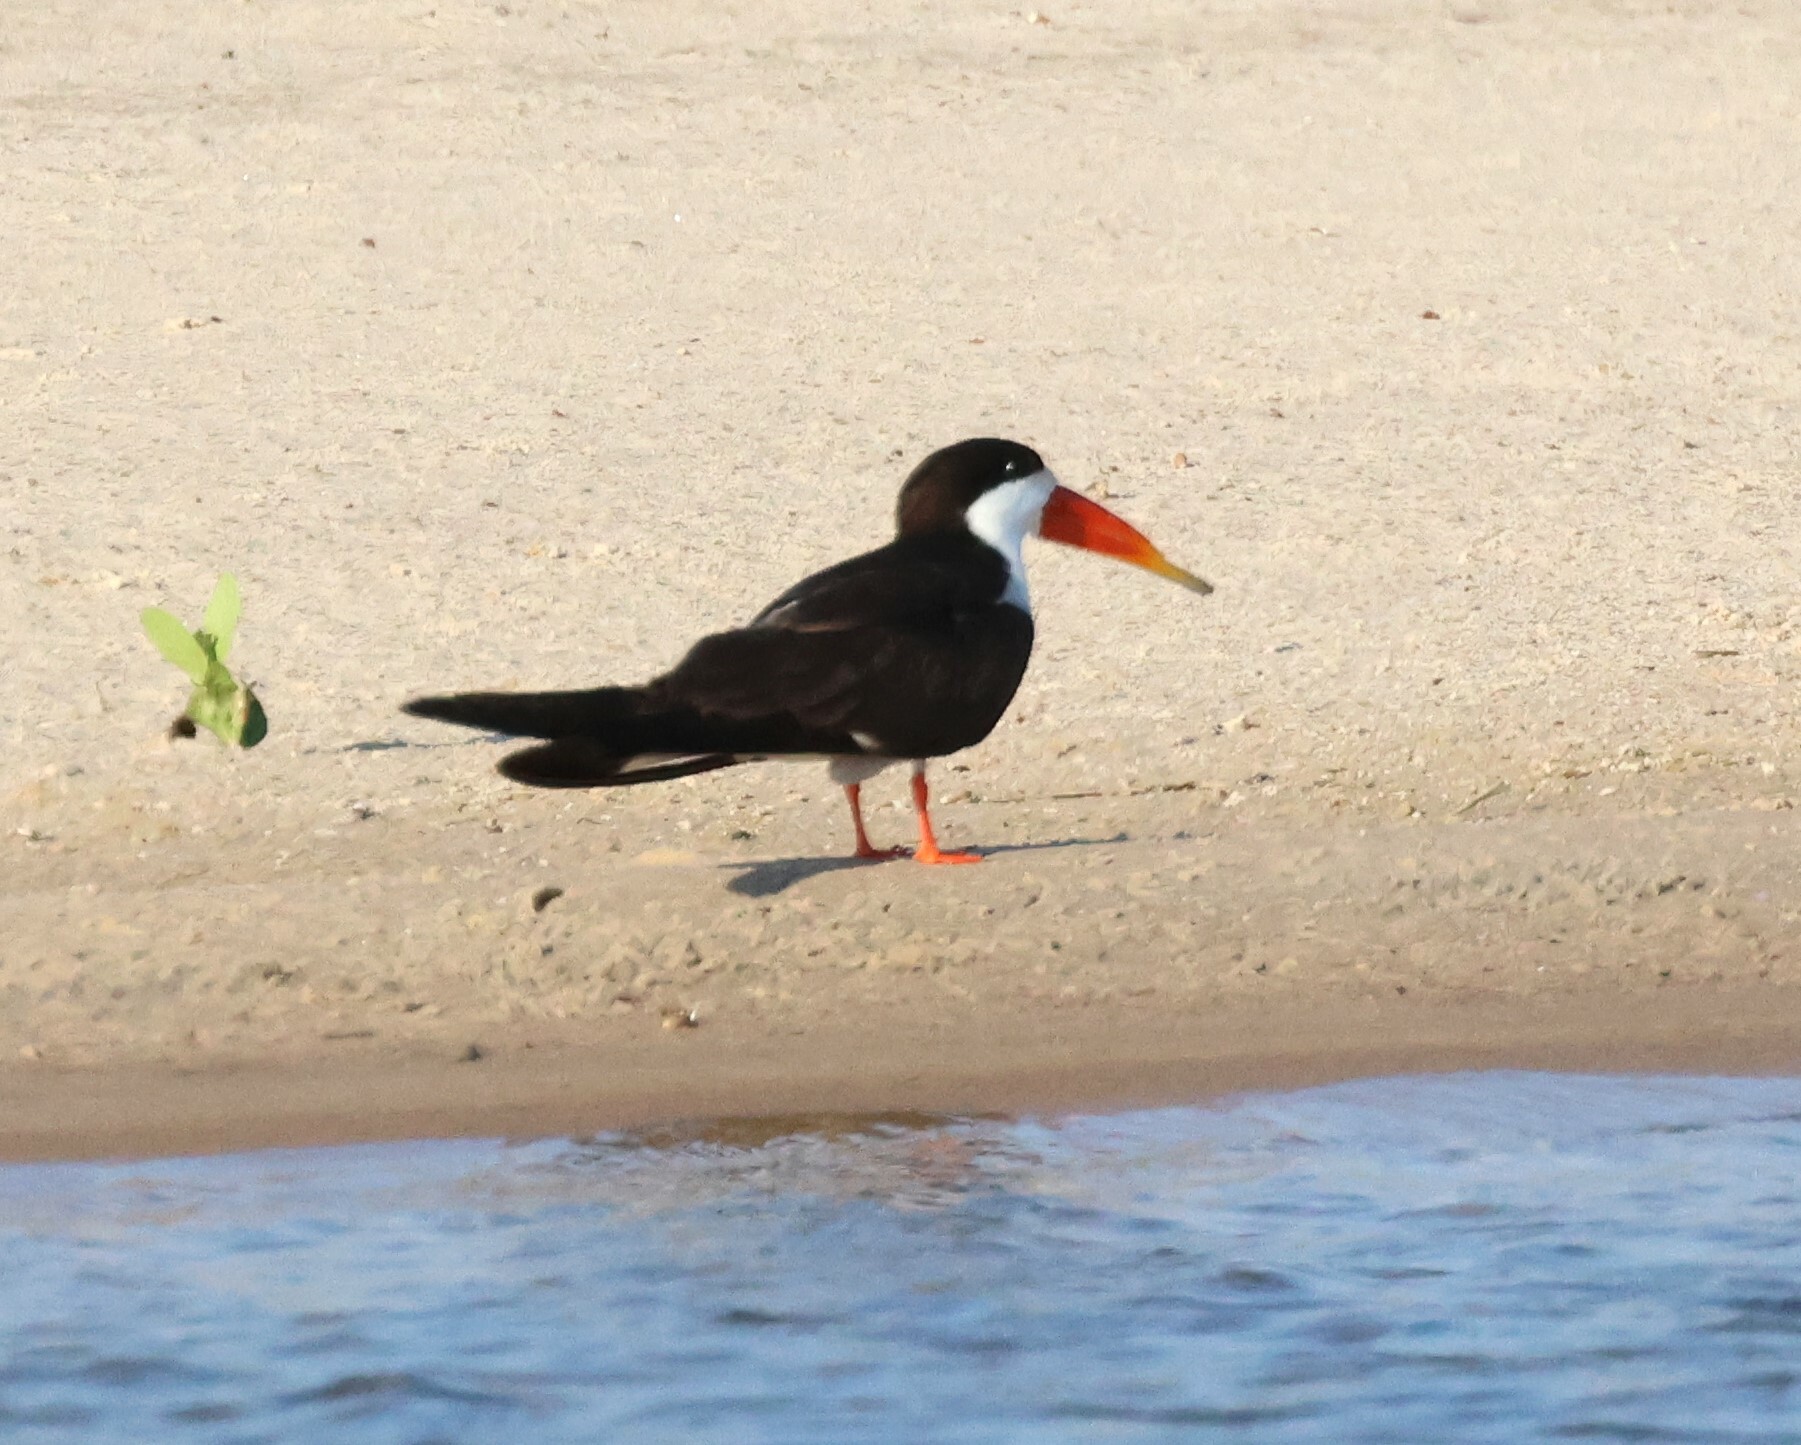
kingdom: Animalia
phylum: Chordata
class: Aves
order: Charadriiformes
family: Laridae
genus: Rynchops
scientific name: Rynchops flavirostris
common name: African skimmer
